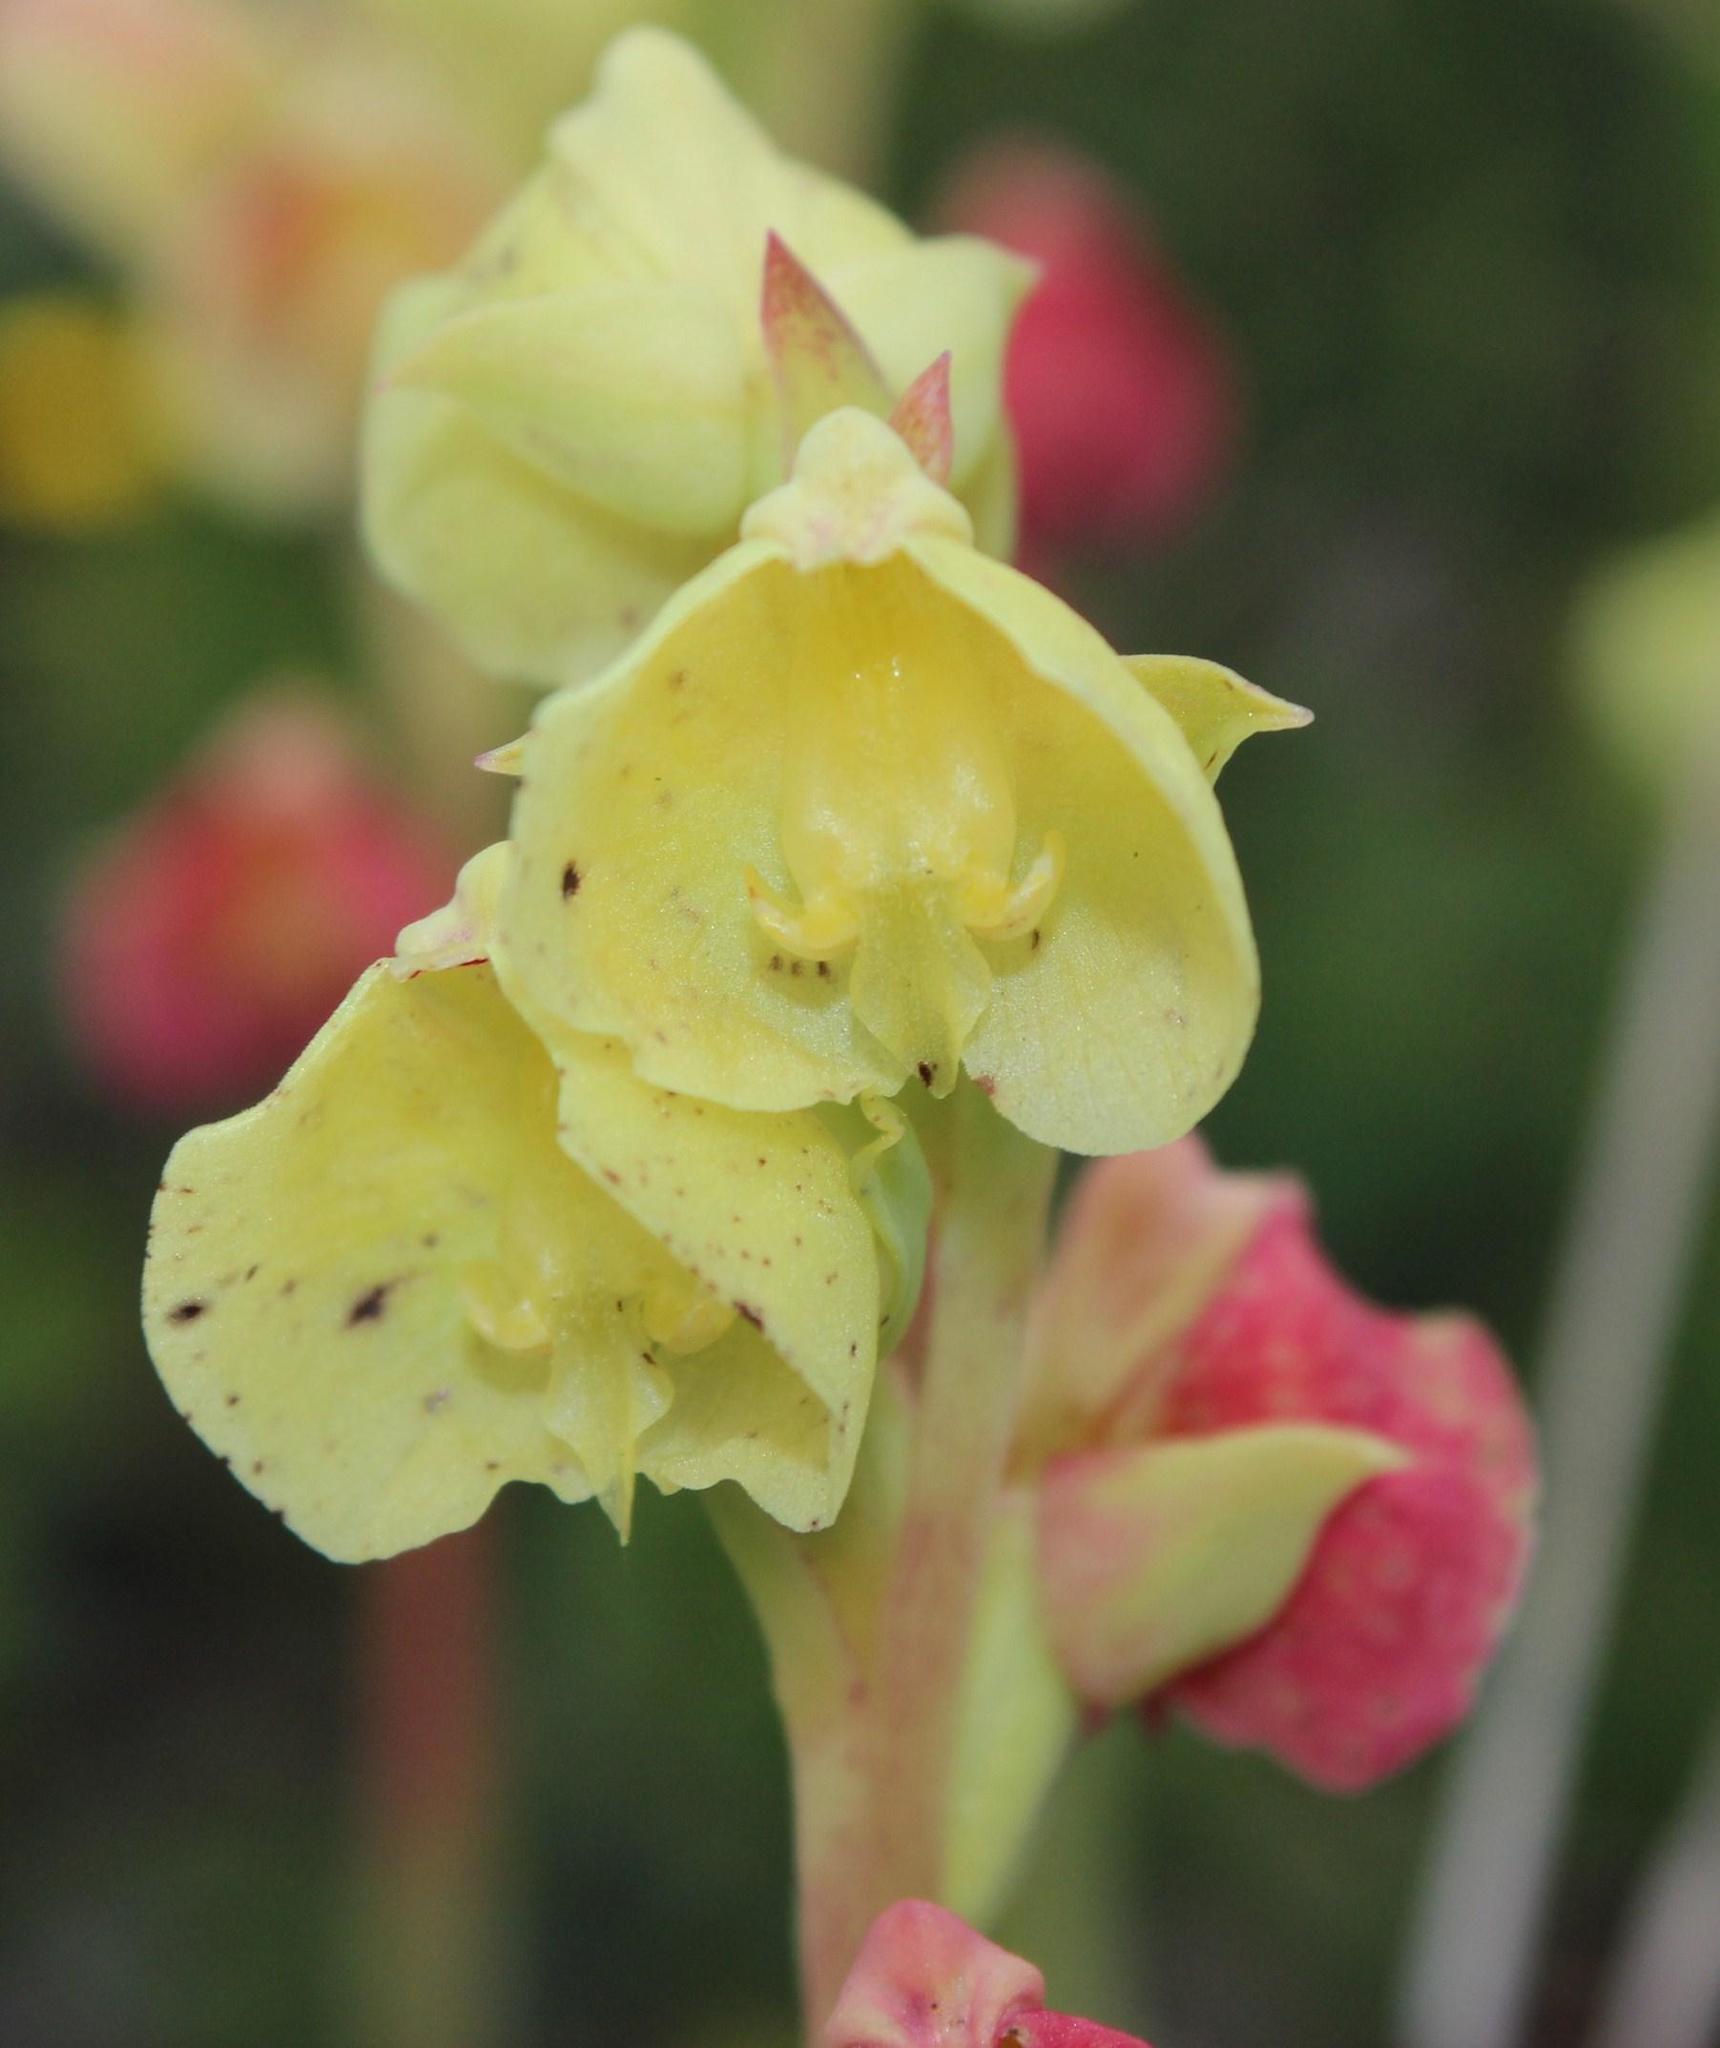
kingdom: Plantae
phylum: Tracheophyta
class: Liliopsida
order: Asparagales
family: Orchidaceae
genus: Pterygodium
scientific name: Pterygodium catholicum
